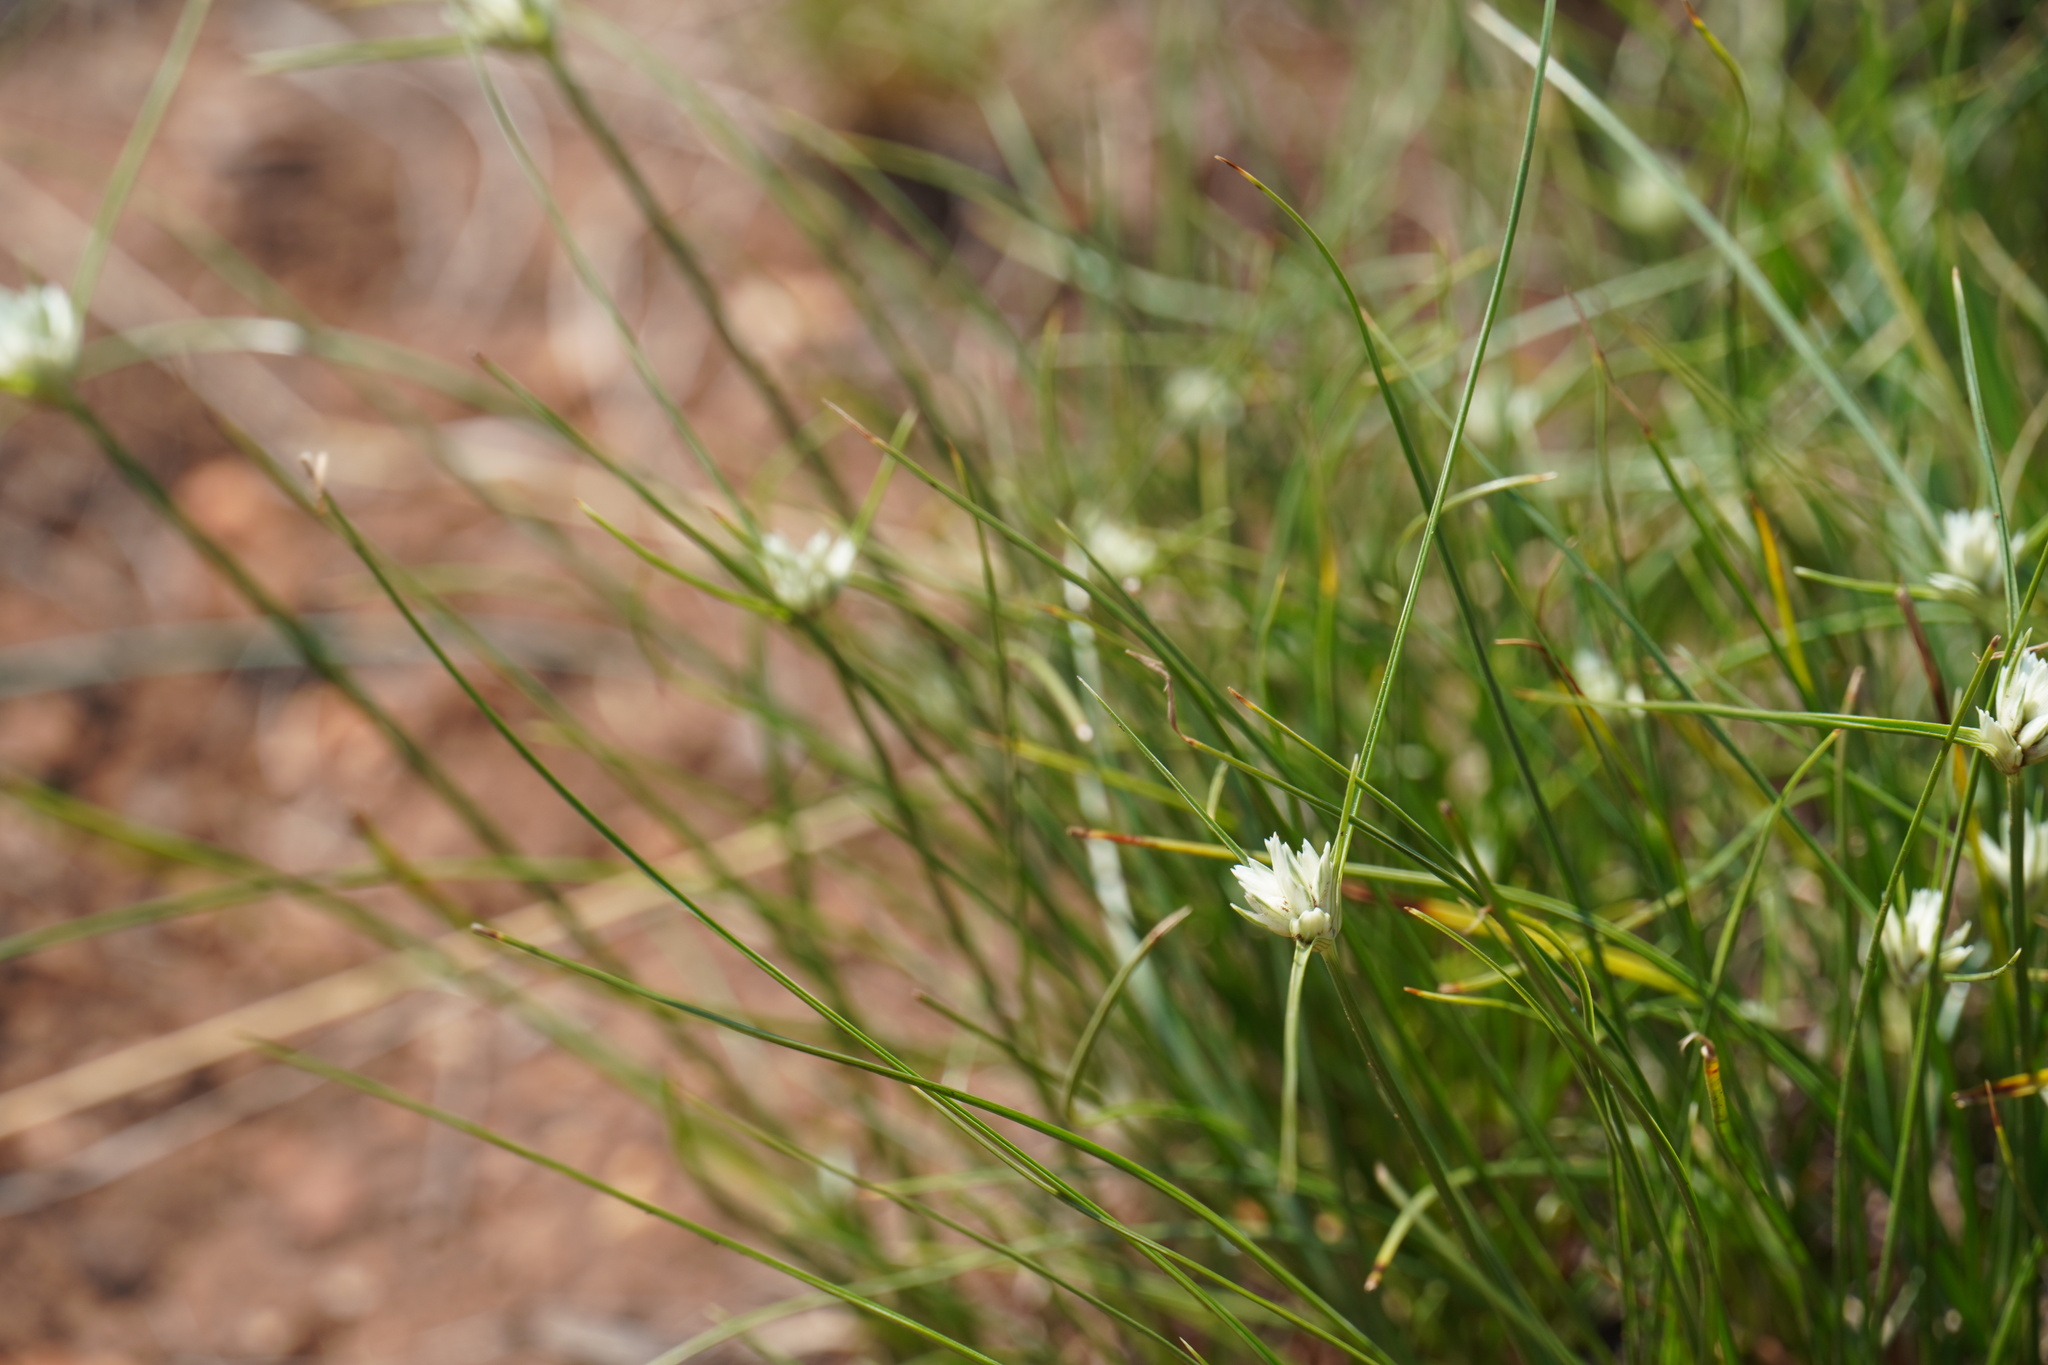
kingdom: Plantae
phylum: Tracheophyta
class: Liliopsida
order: Poales
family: Cyperaceae
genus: Cyperus
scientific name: Cyperus niveus
